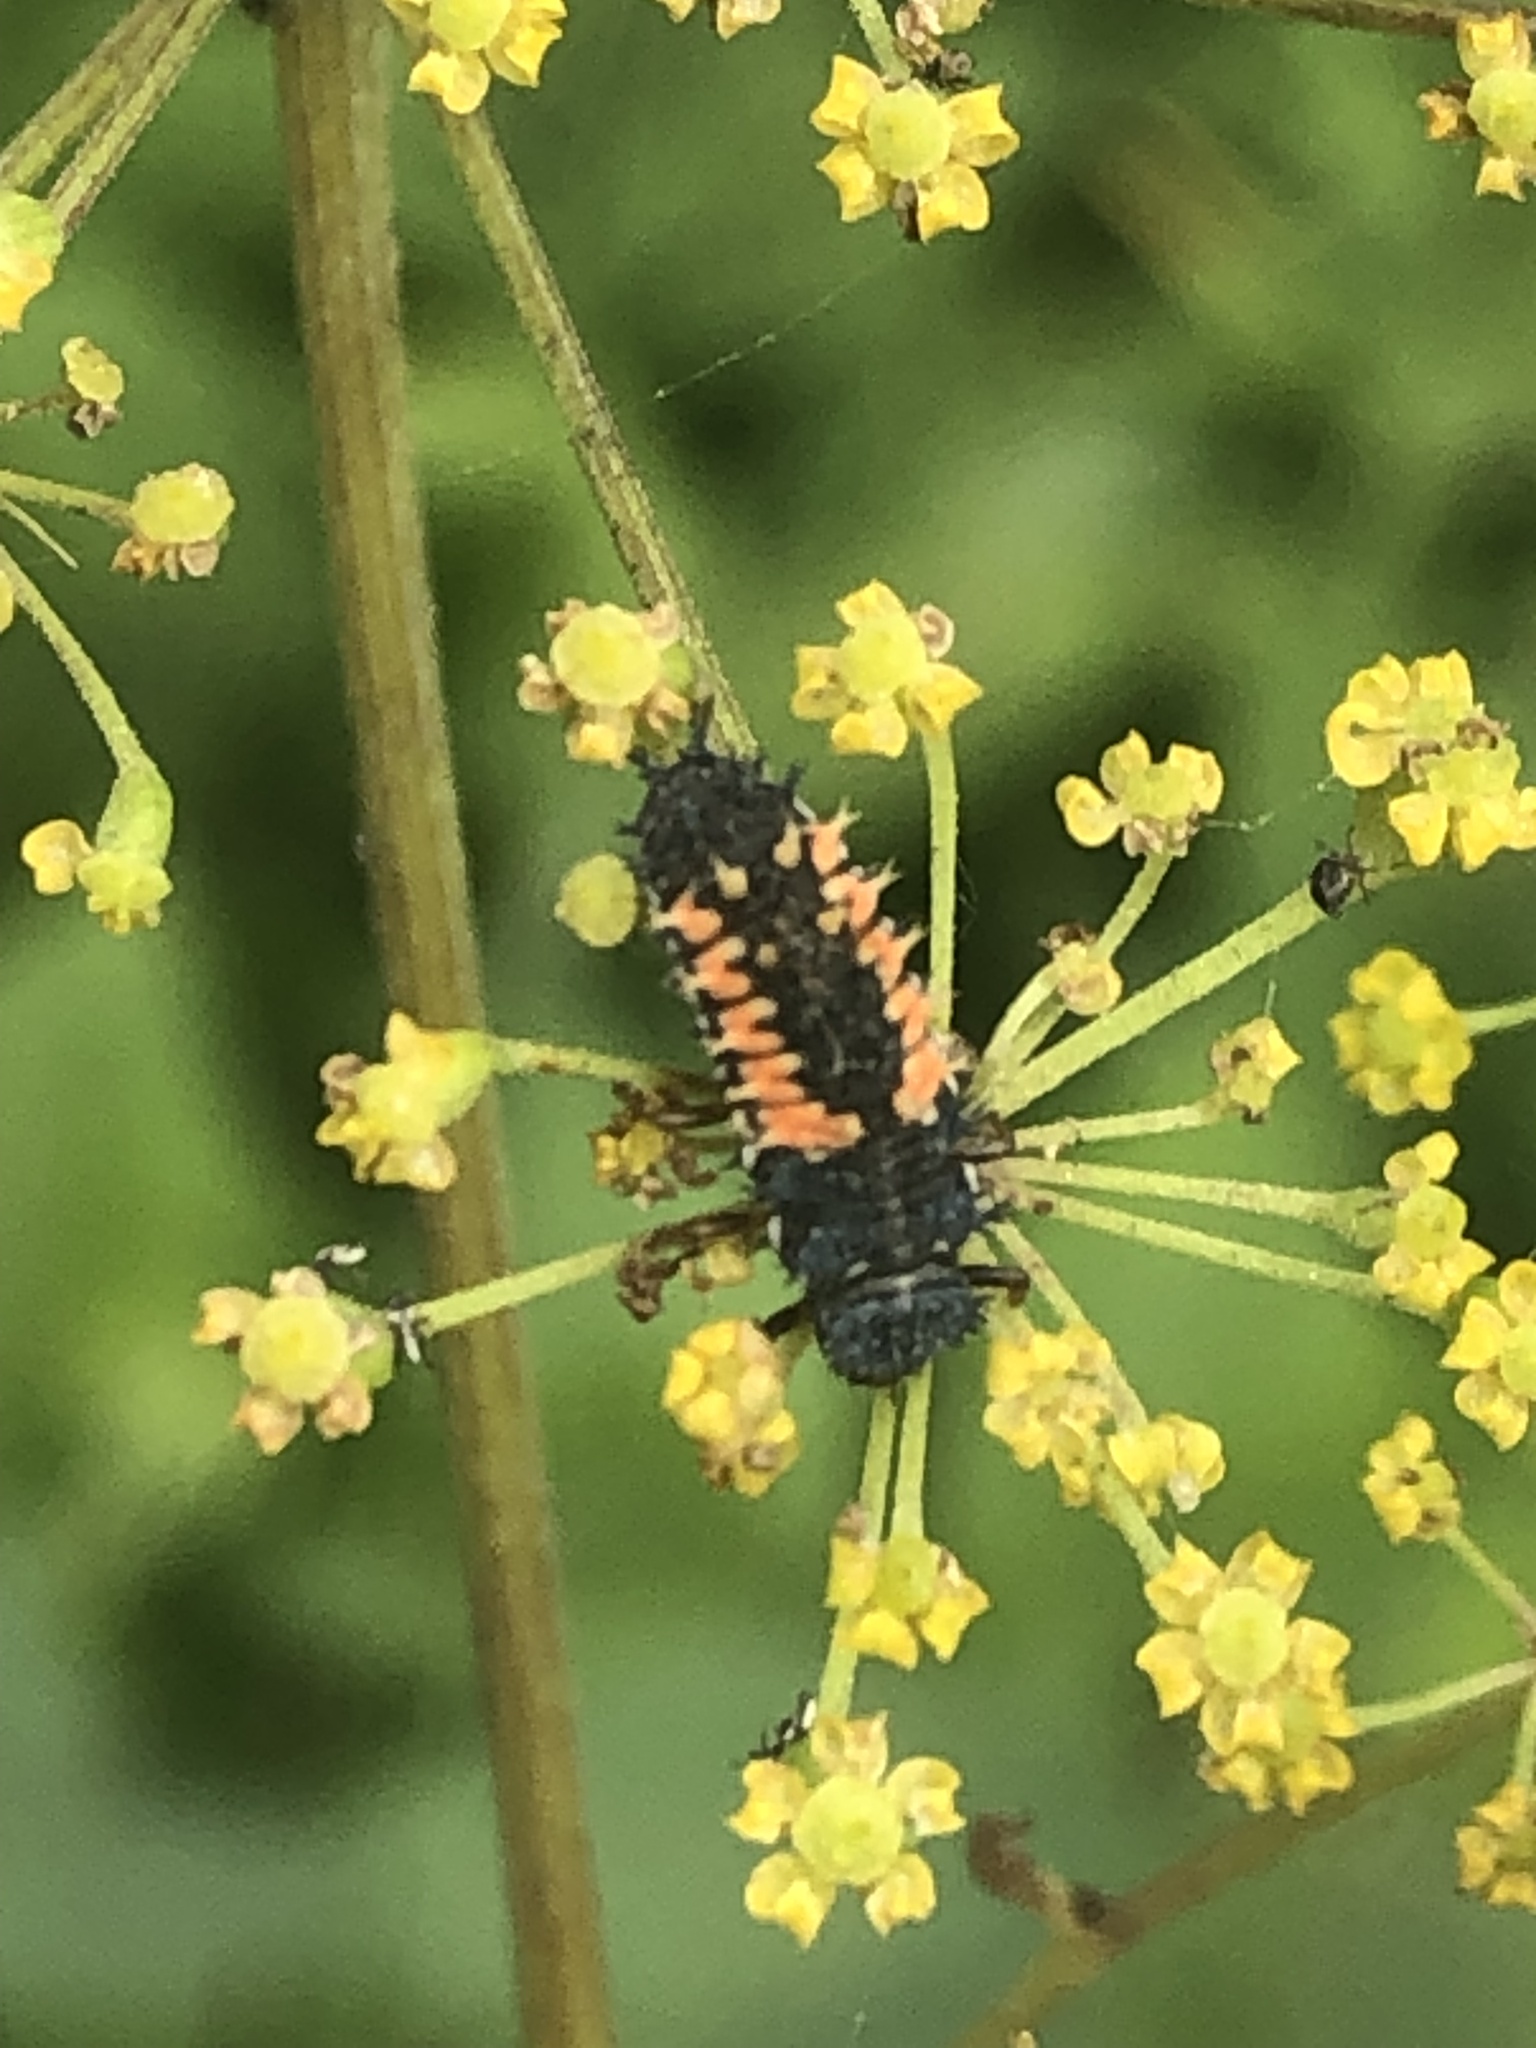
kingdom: Animalia
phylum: Arthropoda
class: Insecta
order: Coleoptera
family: Coccinellidae
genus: Harmonia
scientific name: Harmonia axyridis
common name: Harlequin ladybird
